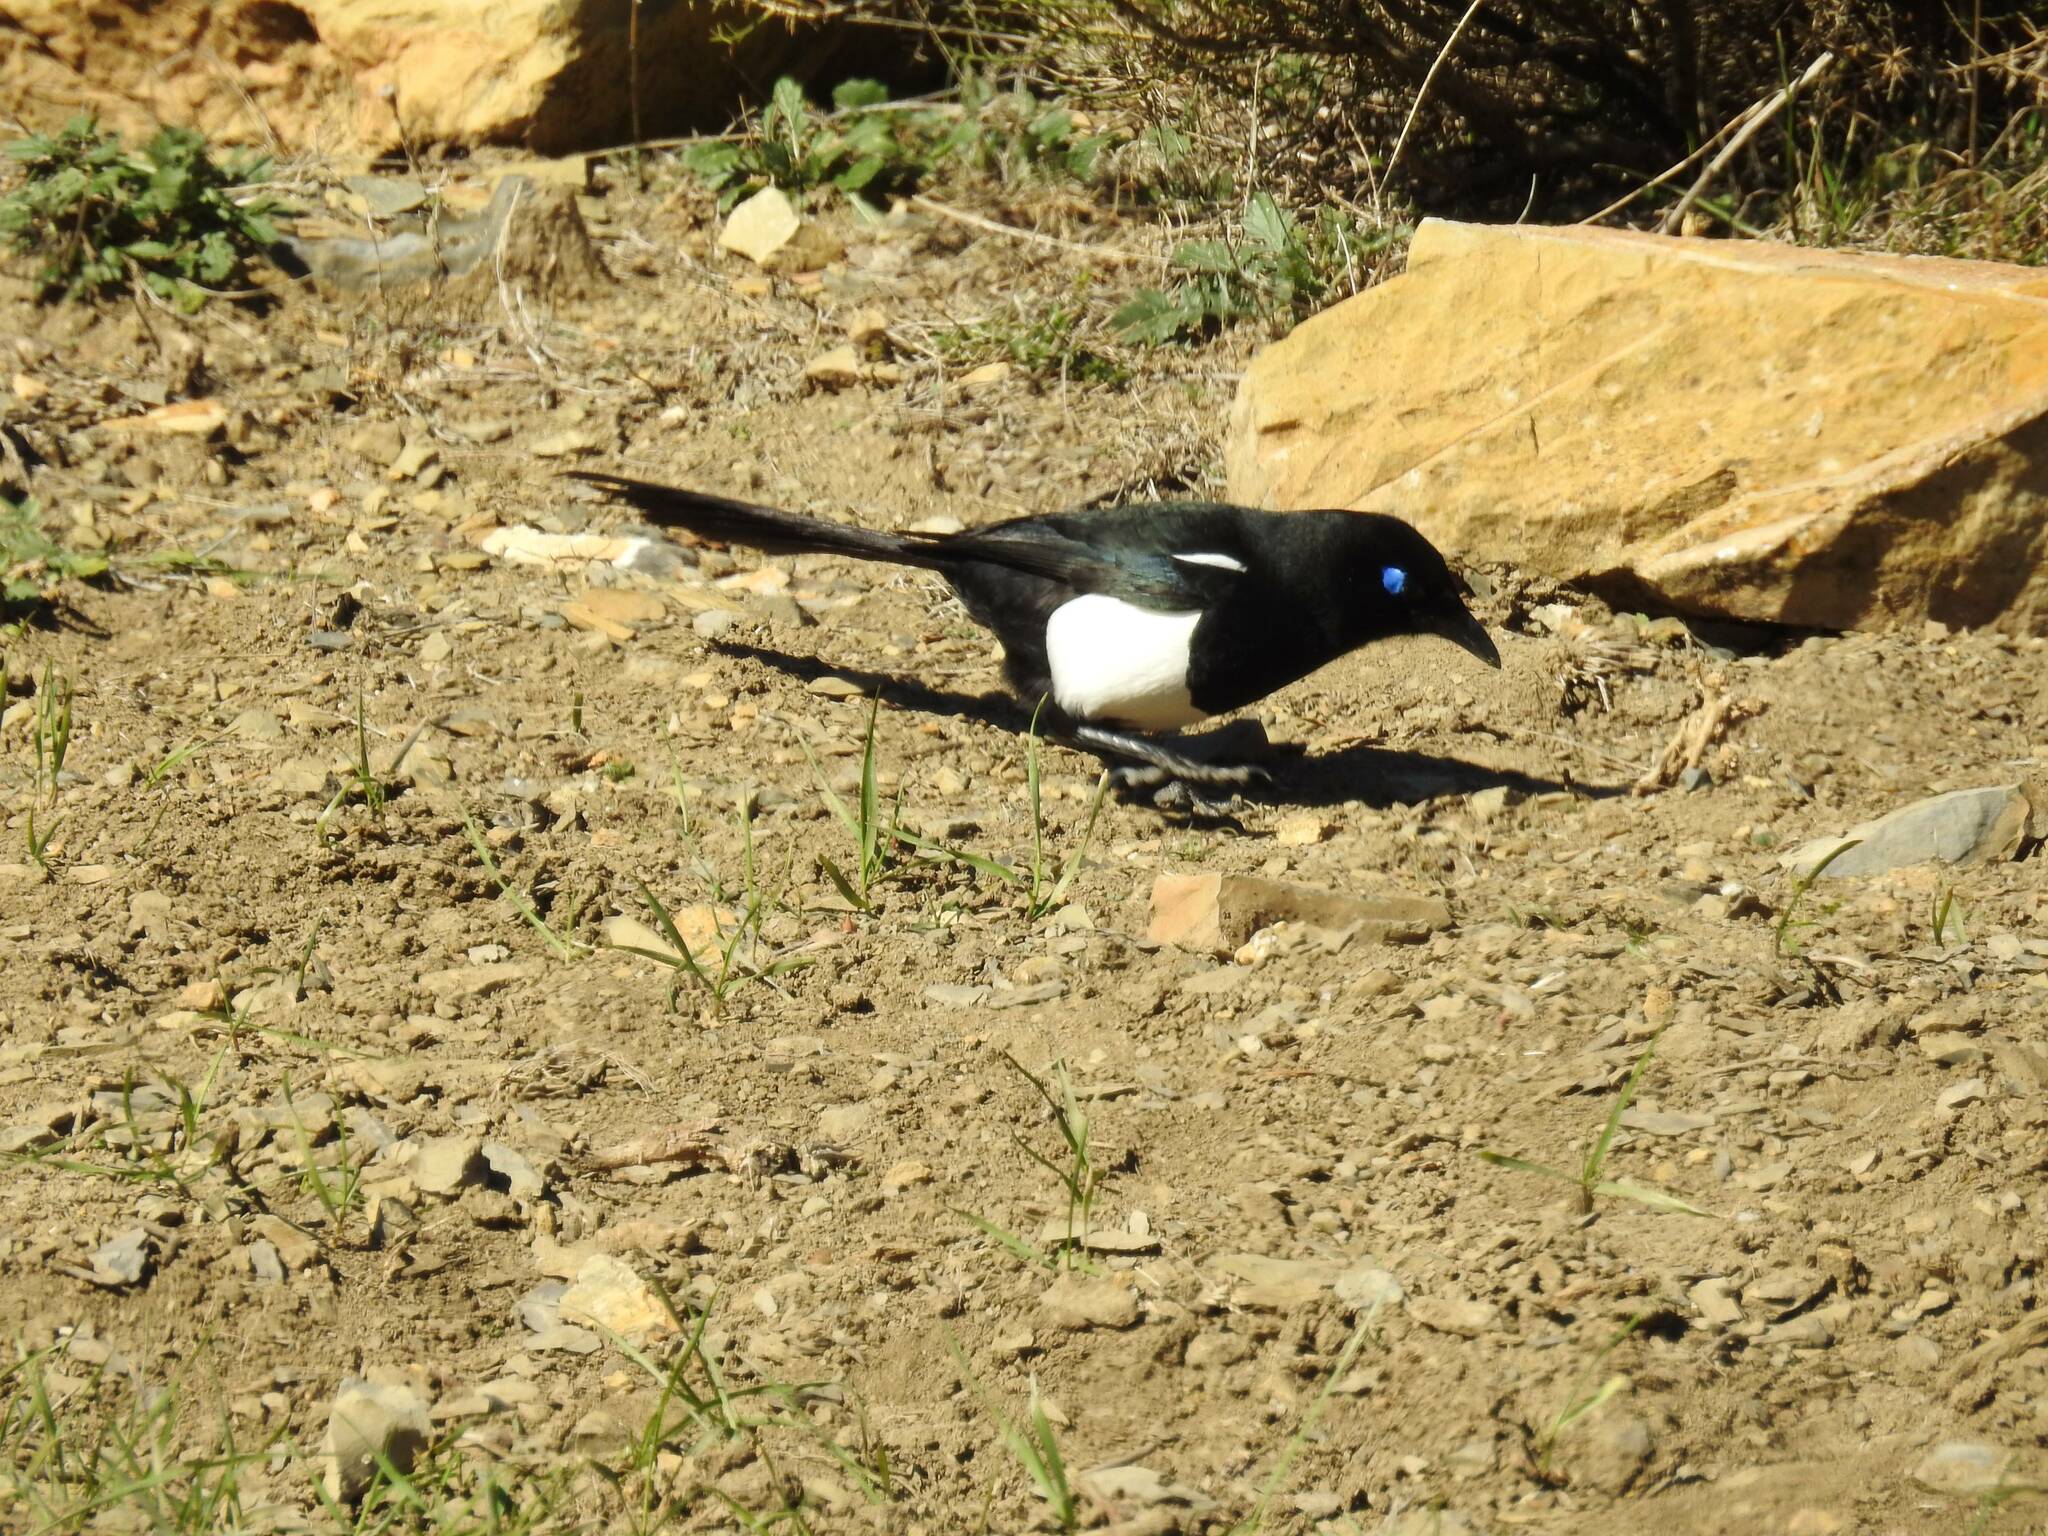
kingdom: Animalia
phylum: Chordata
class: Aves
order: Passeriformes
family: Corvidae
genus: Pica
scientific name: Pica mauritanica
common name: Maghreb magpie
